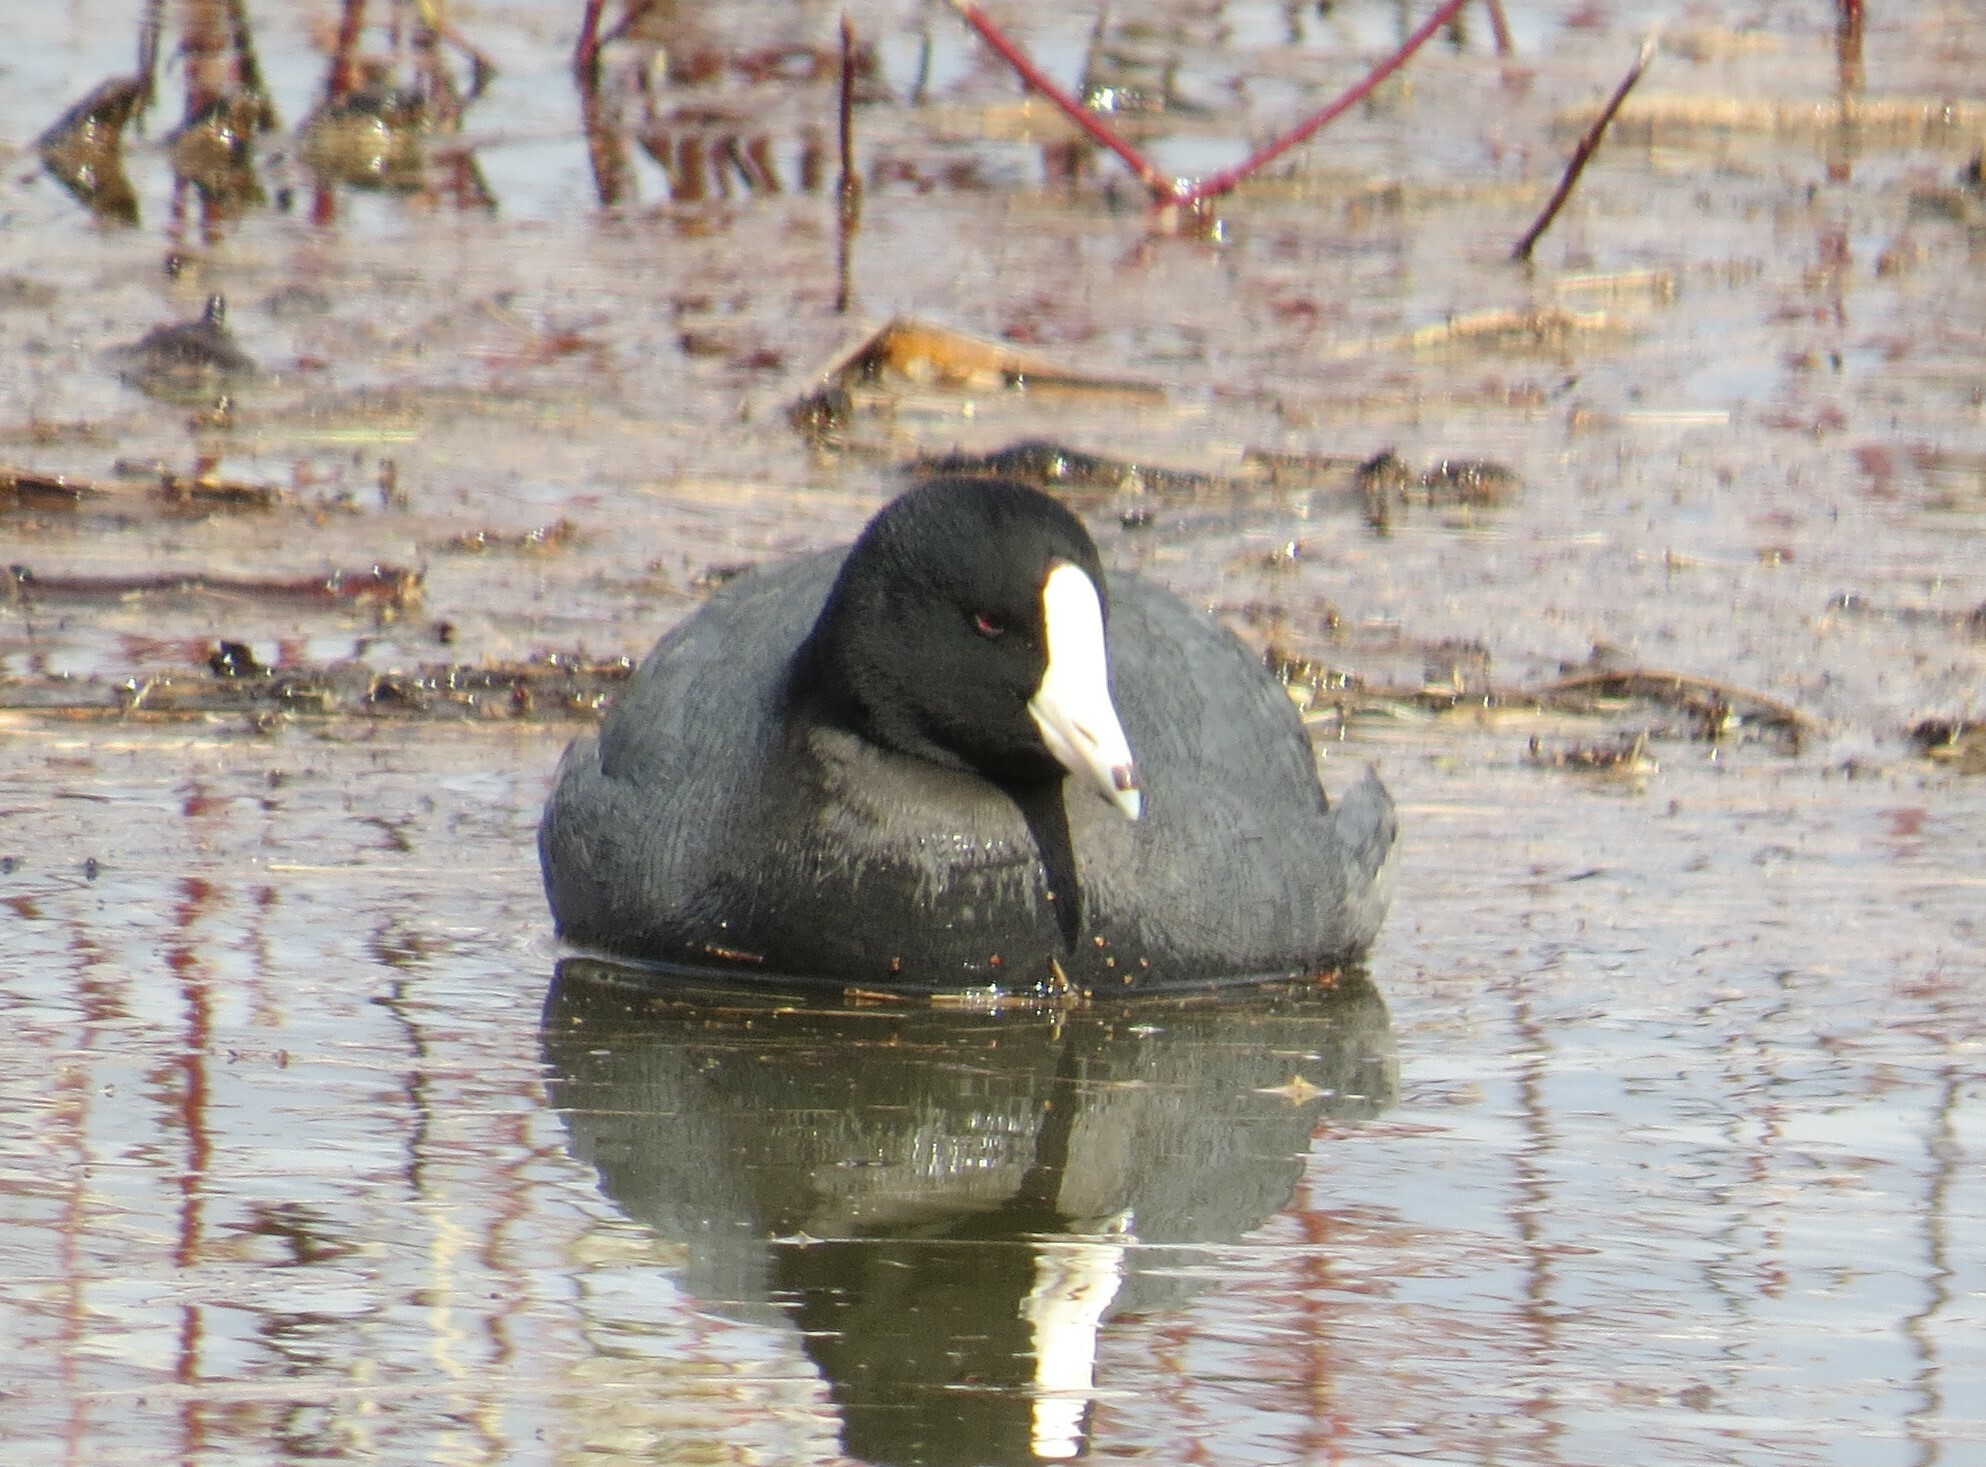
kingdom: Animalia
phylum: Chordata
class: Aves
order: Gruiformes
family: Rallidae
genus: Fulica
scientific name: Fulica americana
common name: American coot
